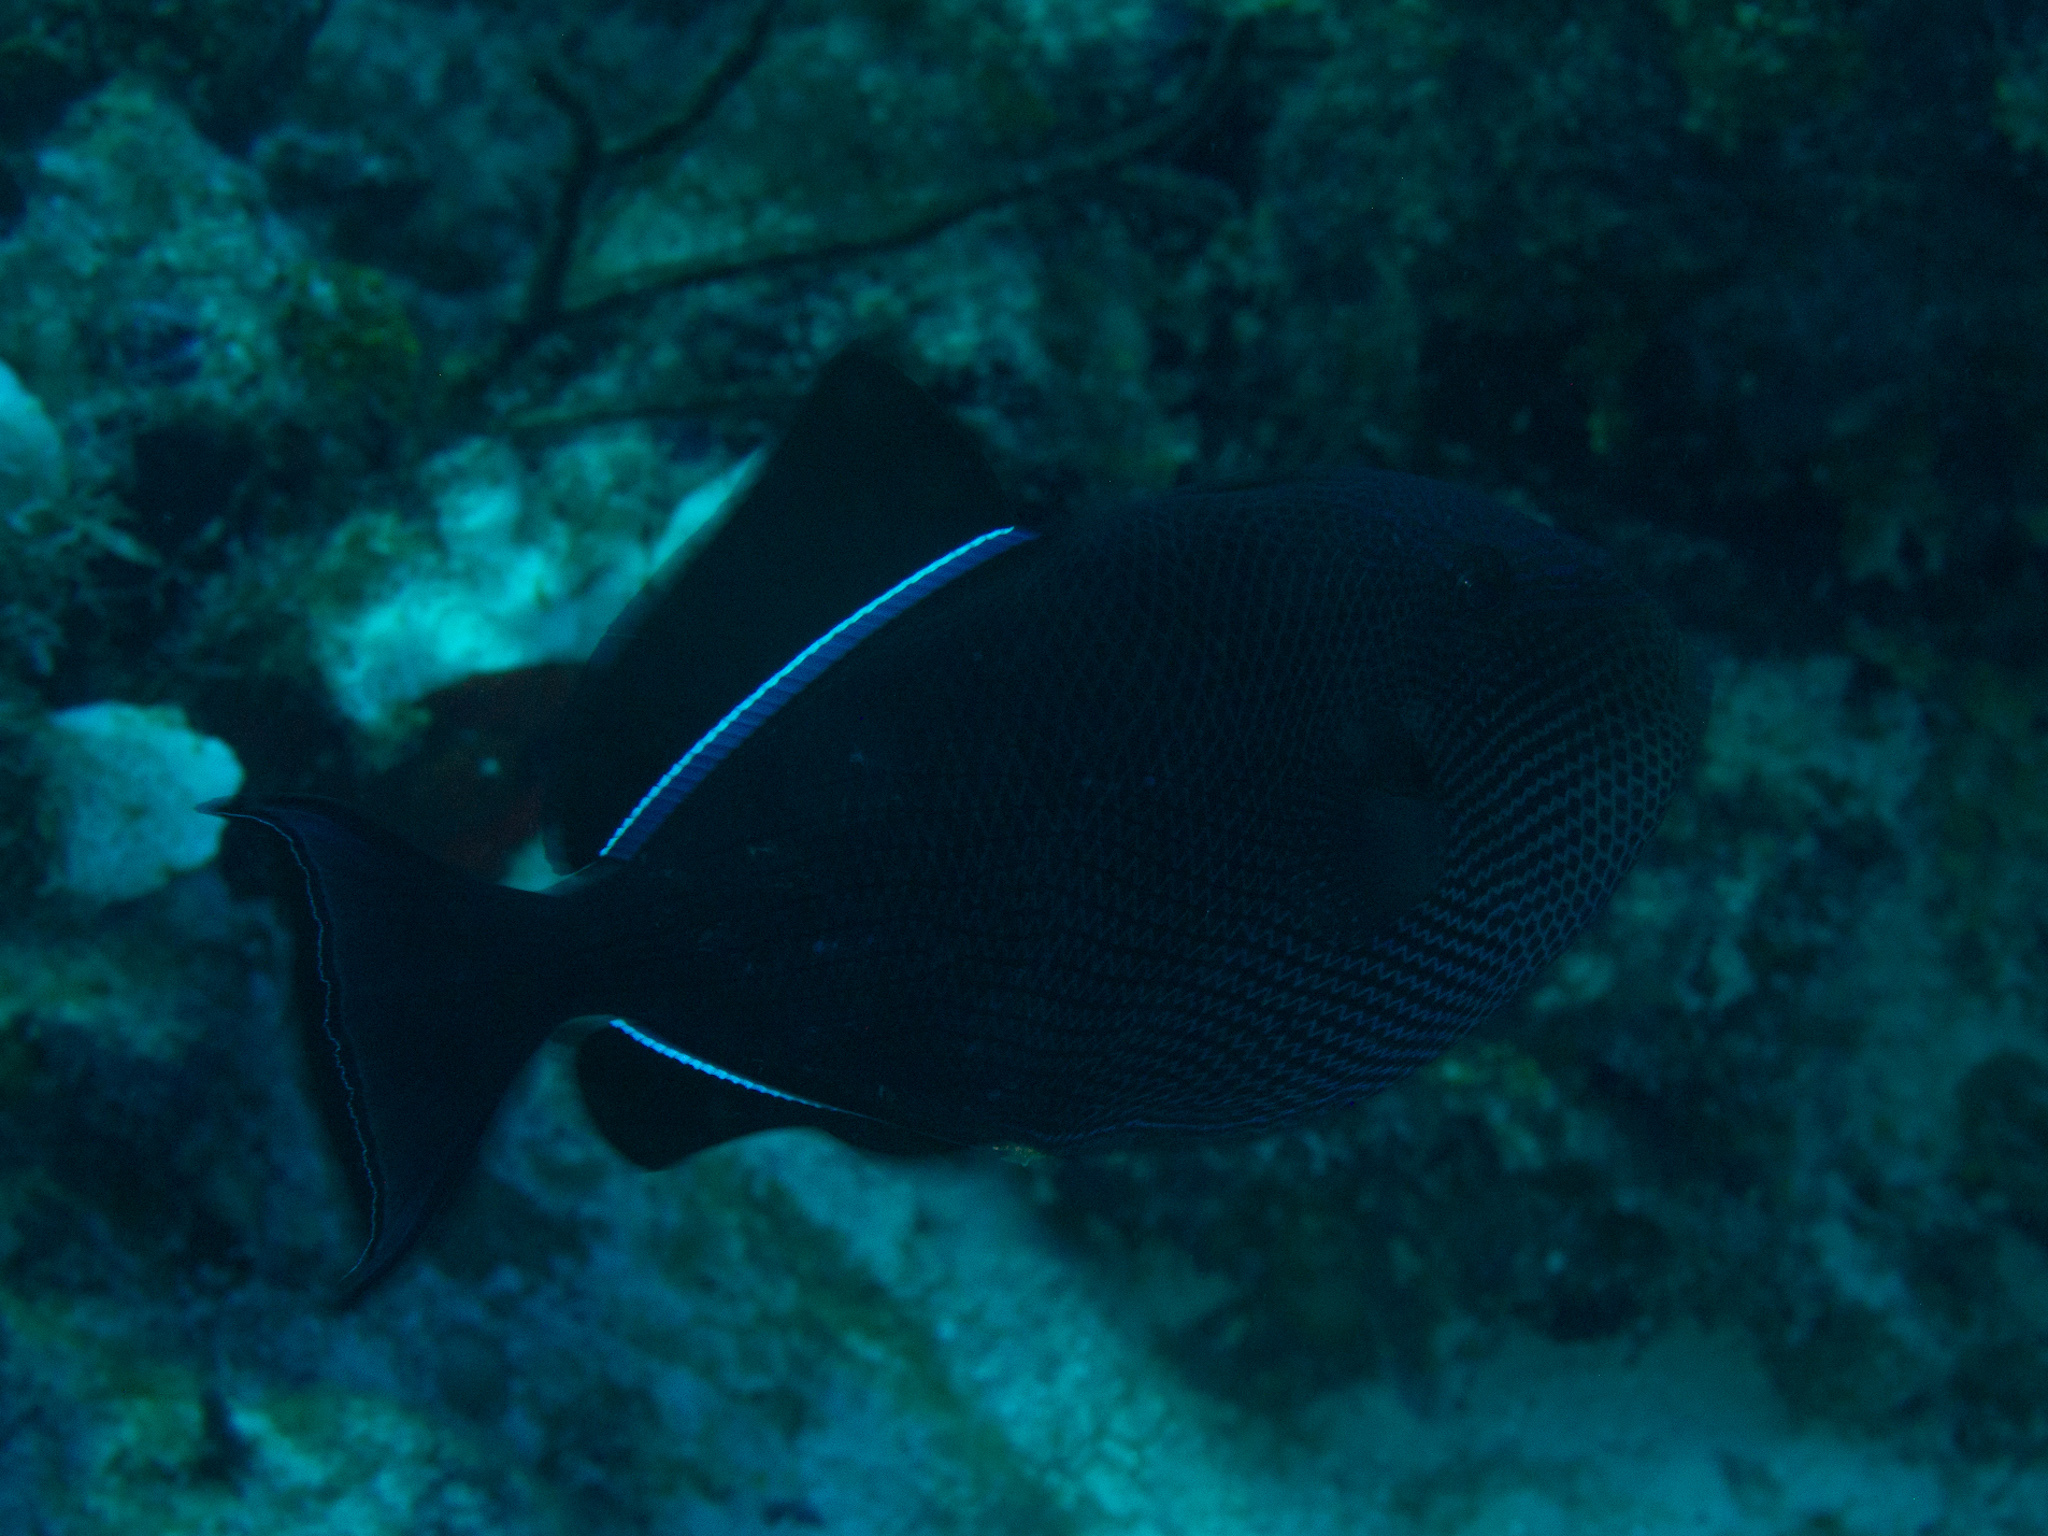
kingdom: Animalia
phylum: Chordata
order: Tetraodontiformes
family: Balistidae
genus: Melichthys
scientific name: Melichthys niger
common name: Black durgon
